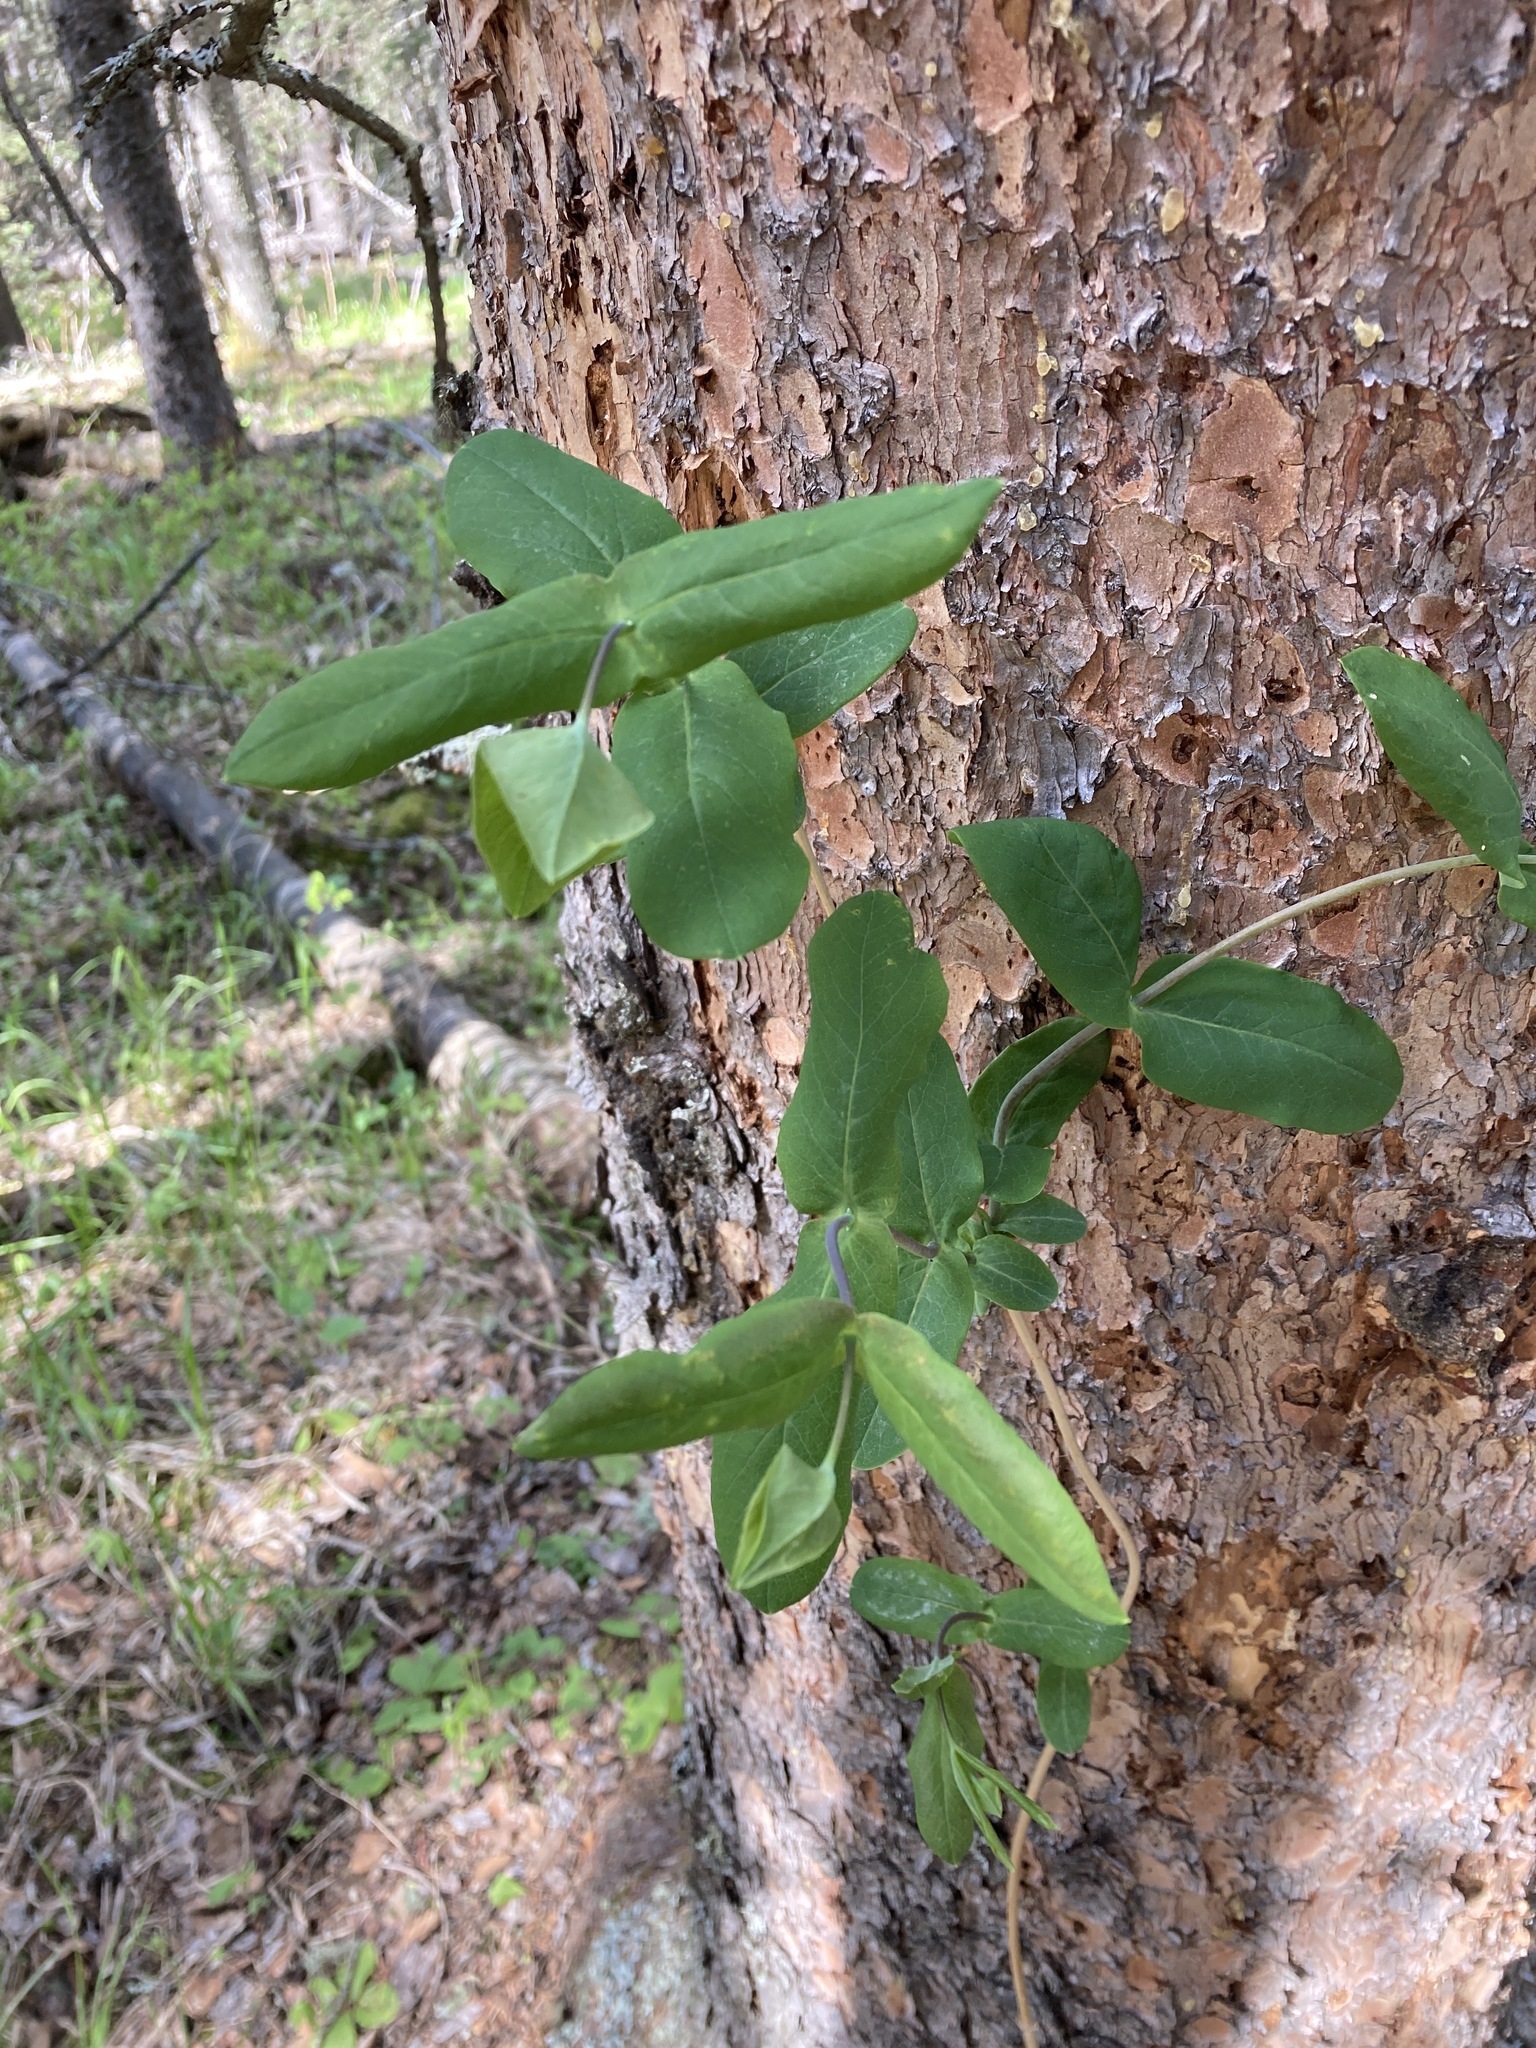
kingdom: Plantae
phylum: Tracheophyta
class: Magnoliopsida
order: Dipsacales
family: Caprifoliaceae
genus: Lonicera
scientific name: Lonicera dioica
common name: Limber honeysuckle
